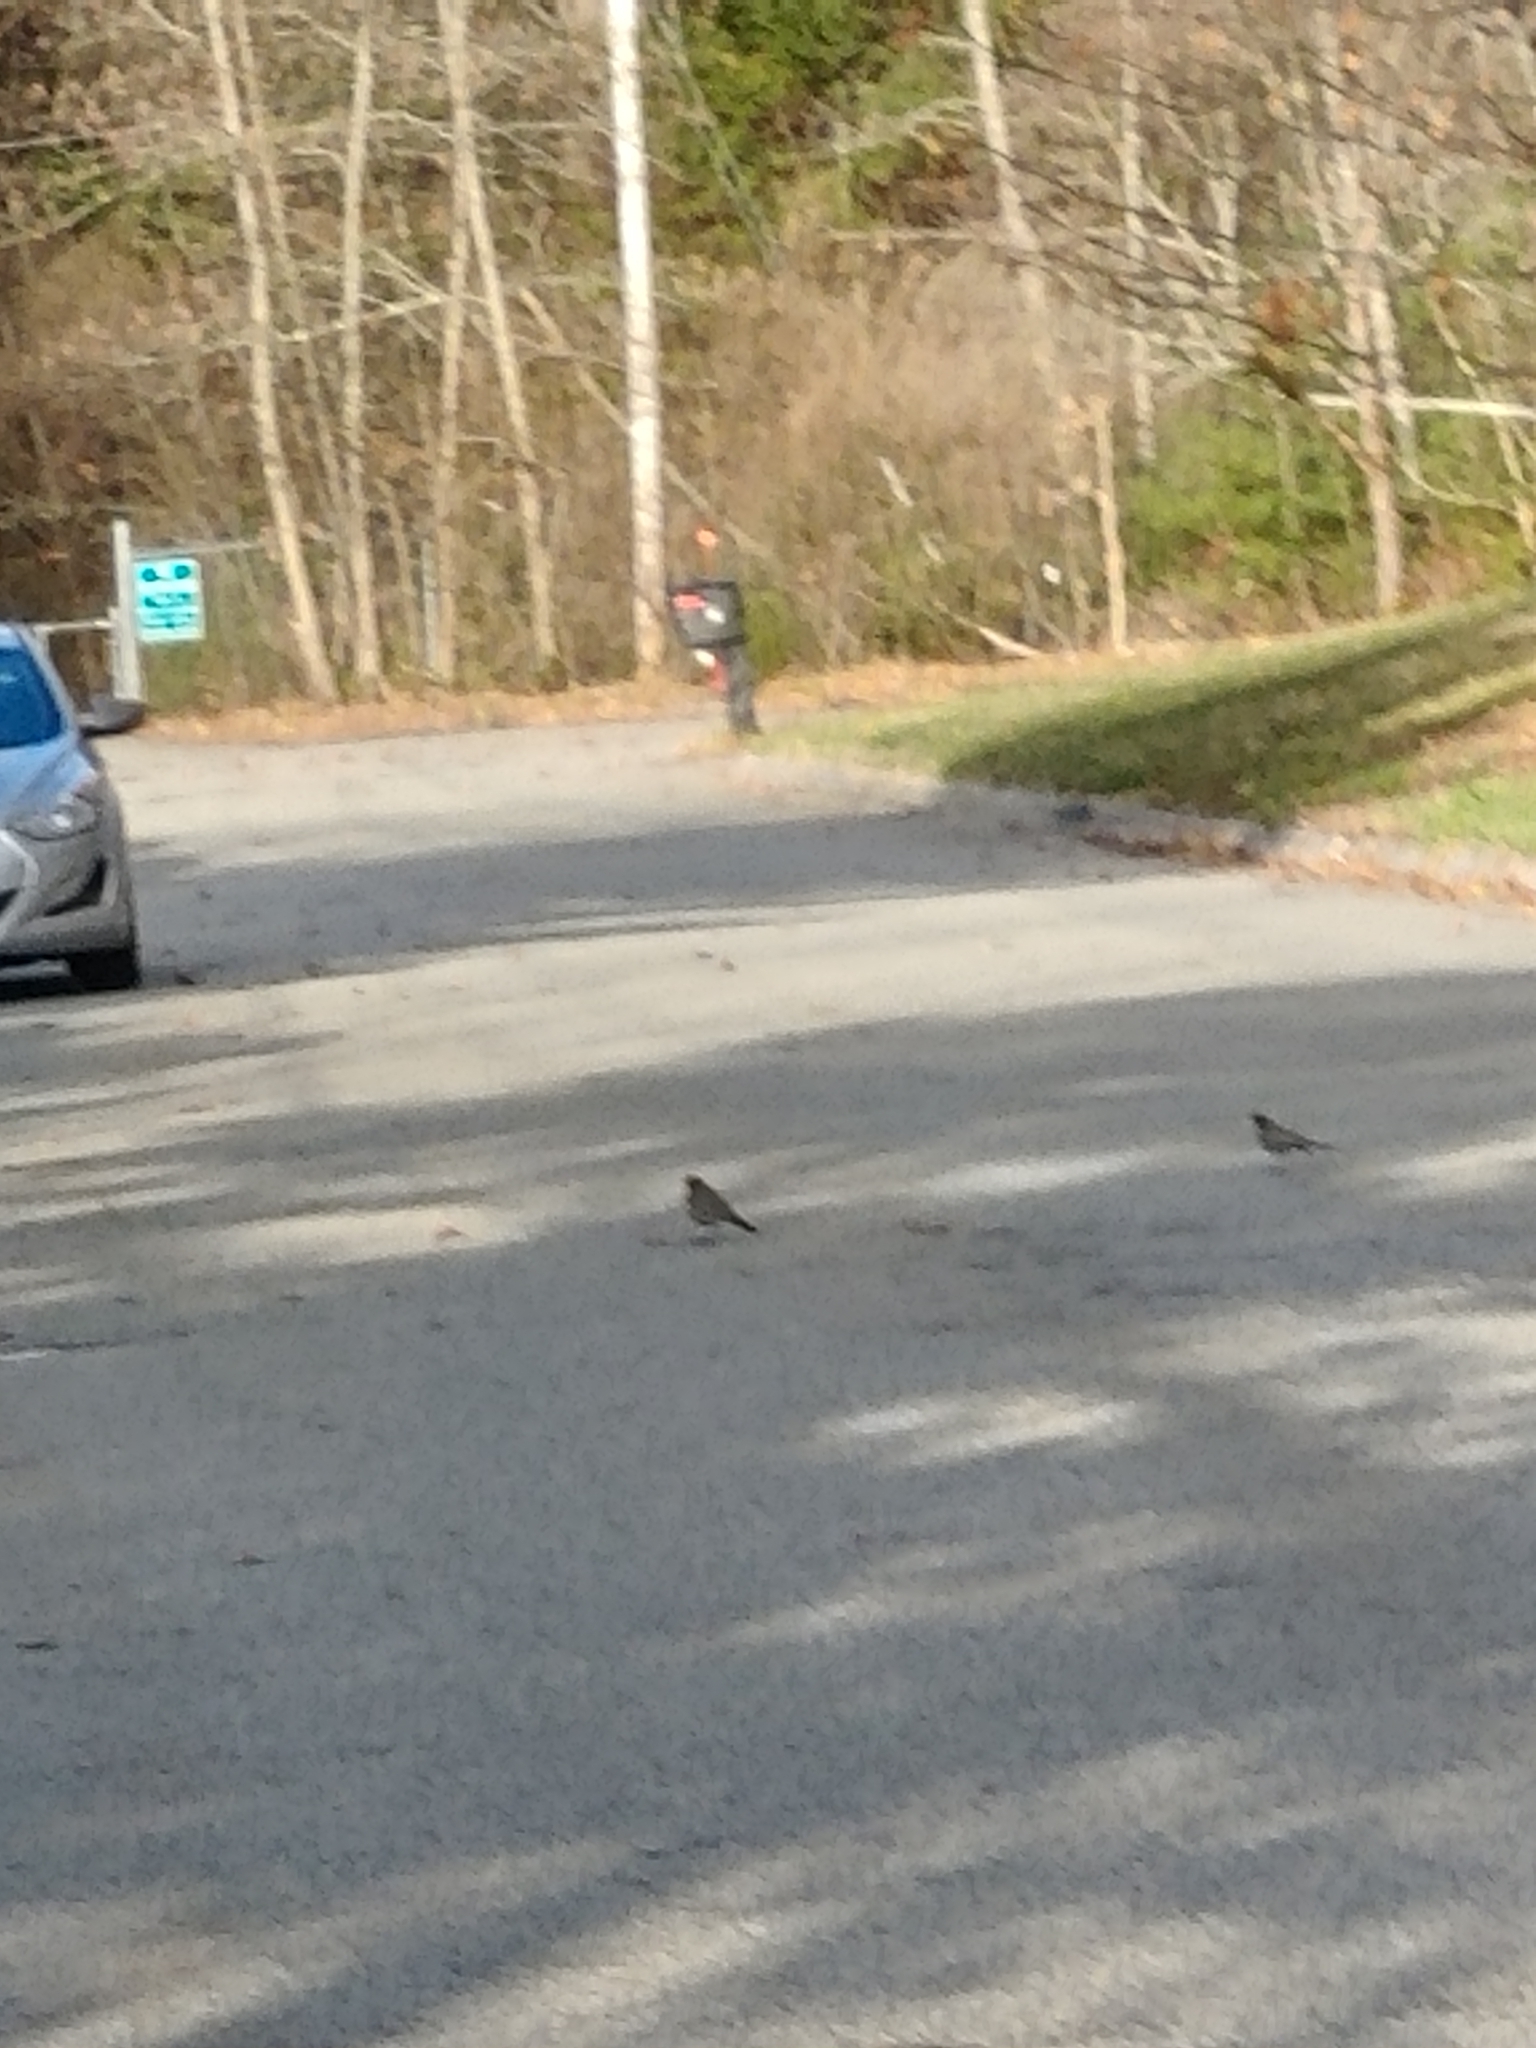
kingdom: Animalia
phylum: Chordata
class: Aves
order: Passeriformes
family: Turdidae
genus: Turdus
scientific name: Turdus migratorius
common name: American robin
